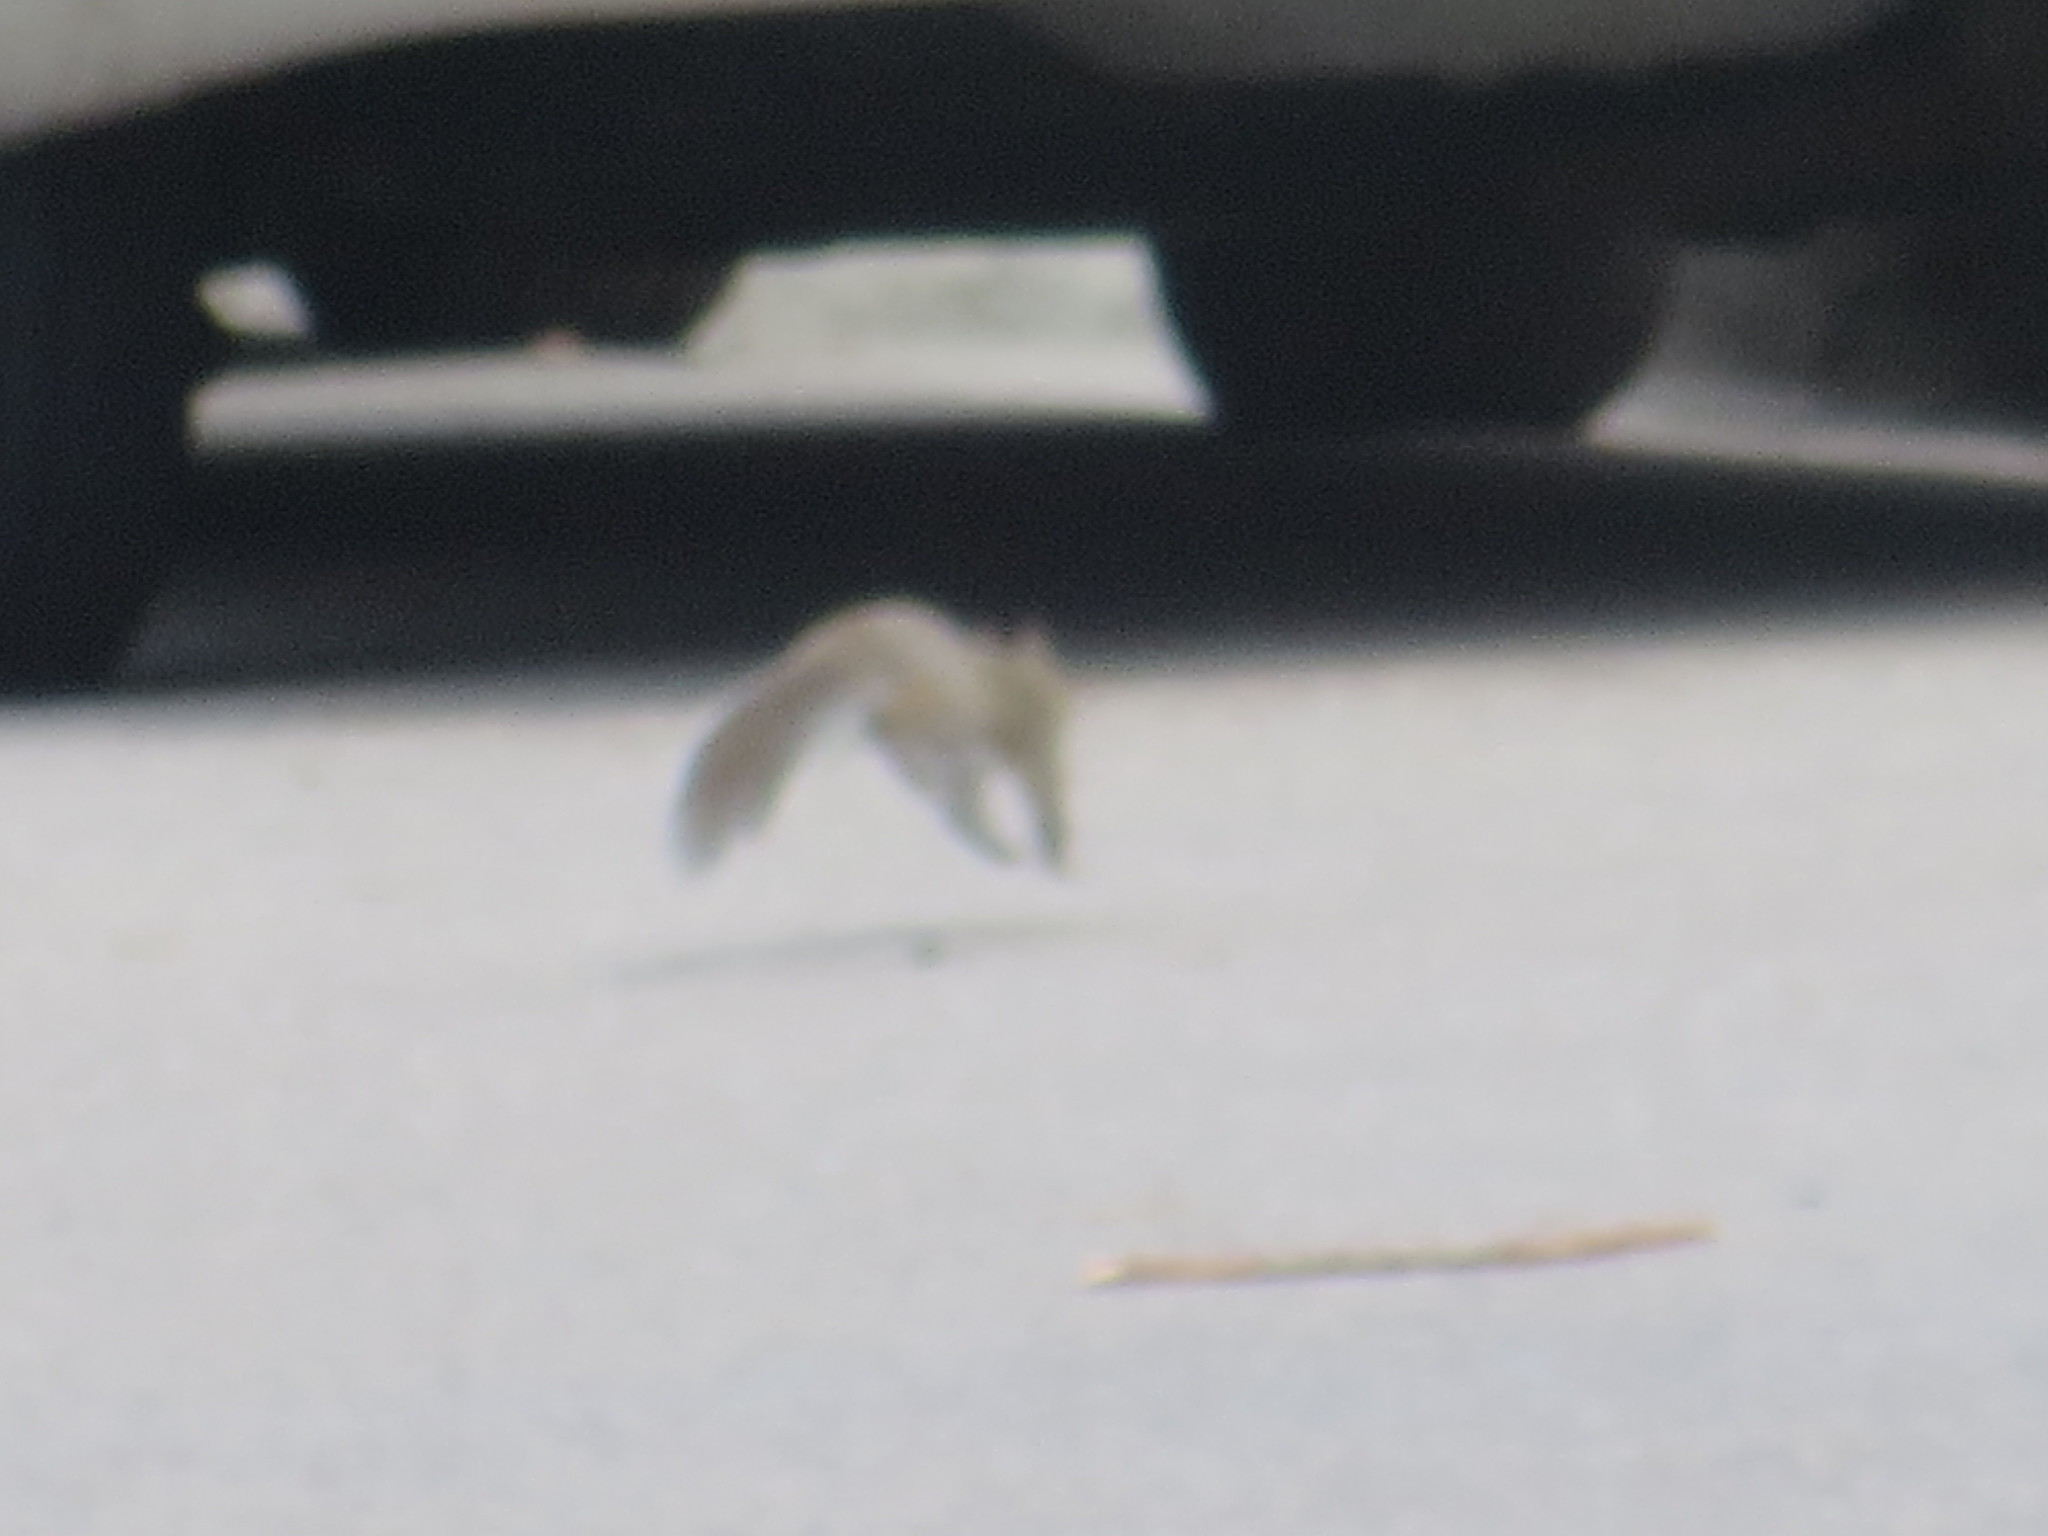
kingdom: Animalia
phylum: Chordata
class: Mammalia
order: Rodentia
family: Sciuridae
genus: Sciurus
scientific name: Sciurus carolinensis
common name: Eastern gray squirrel
